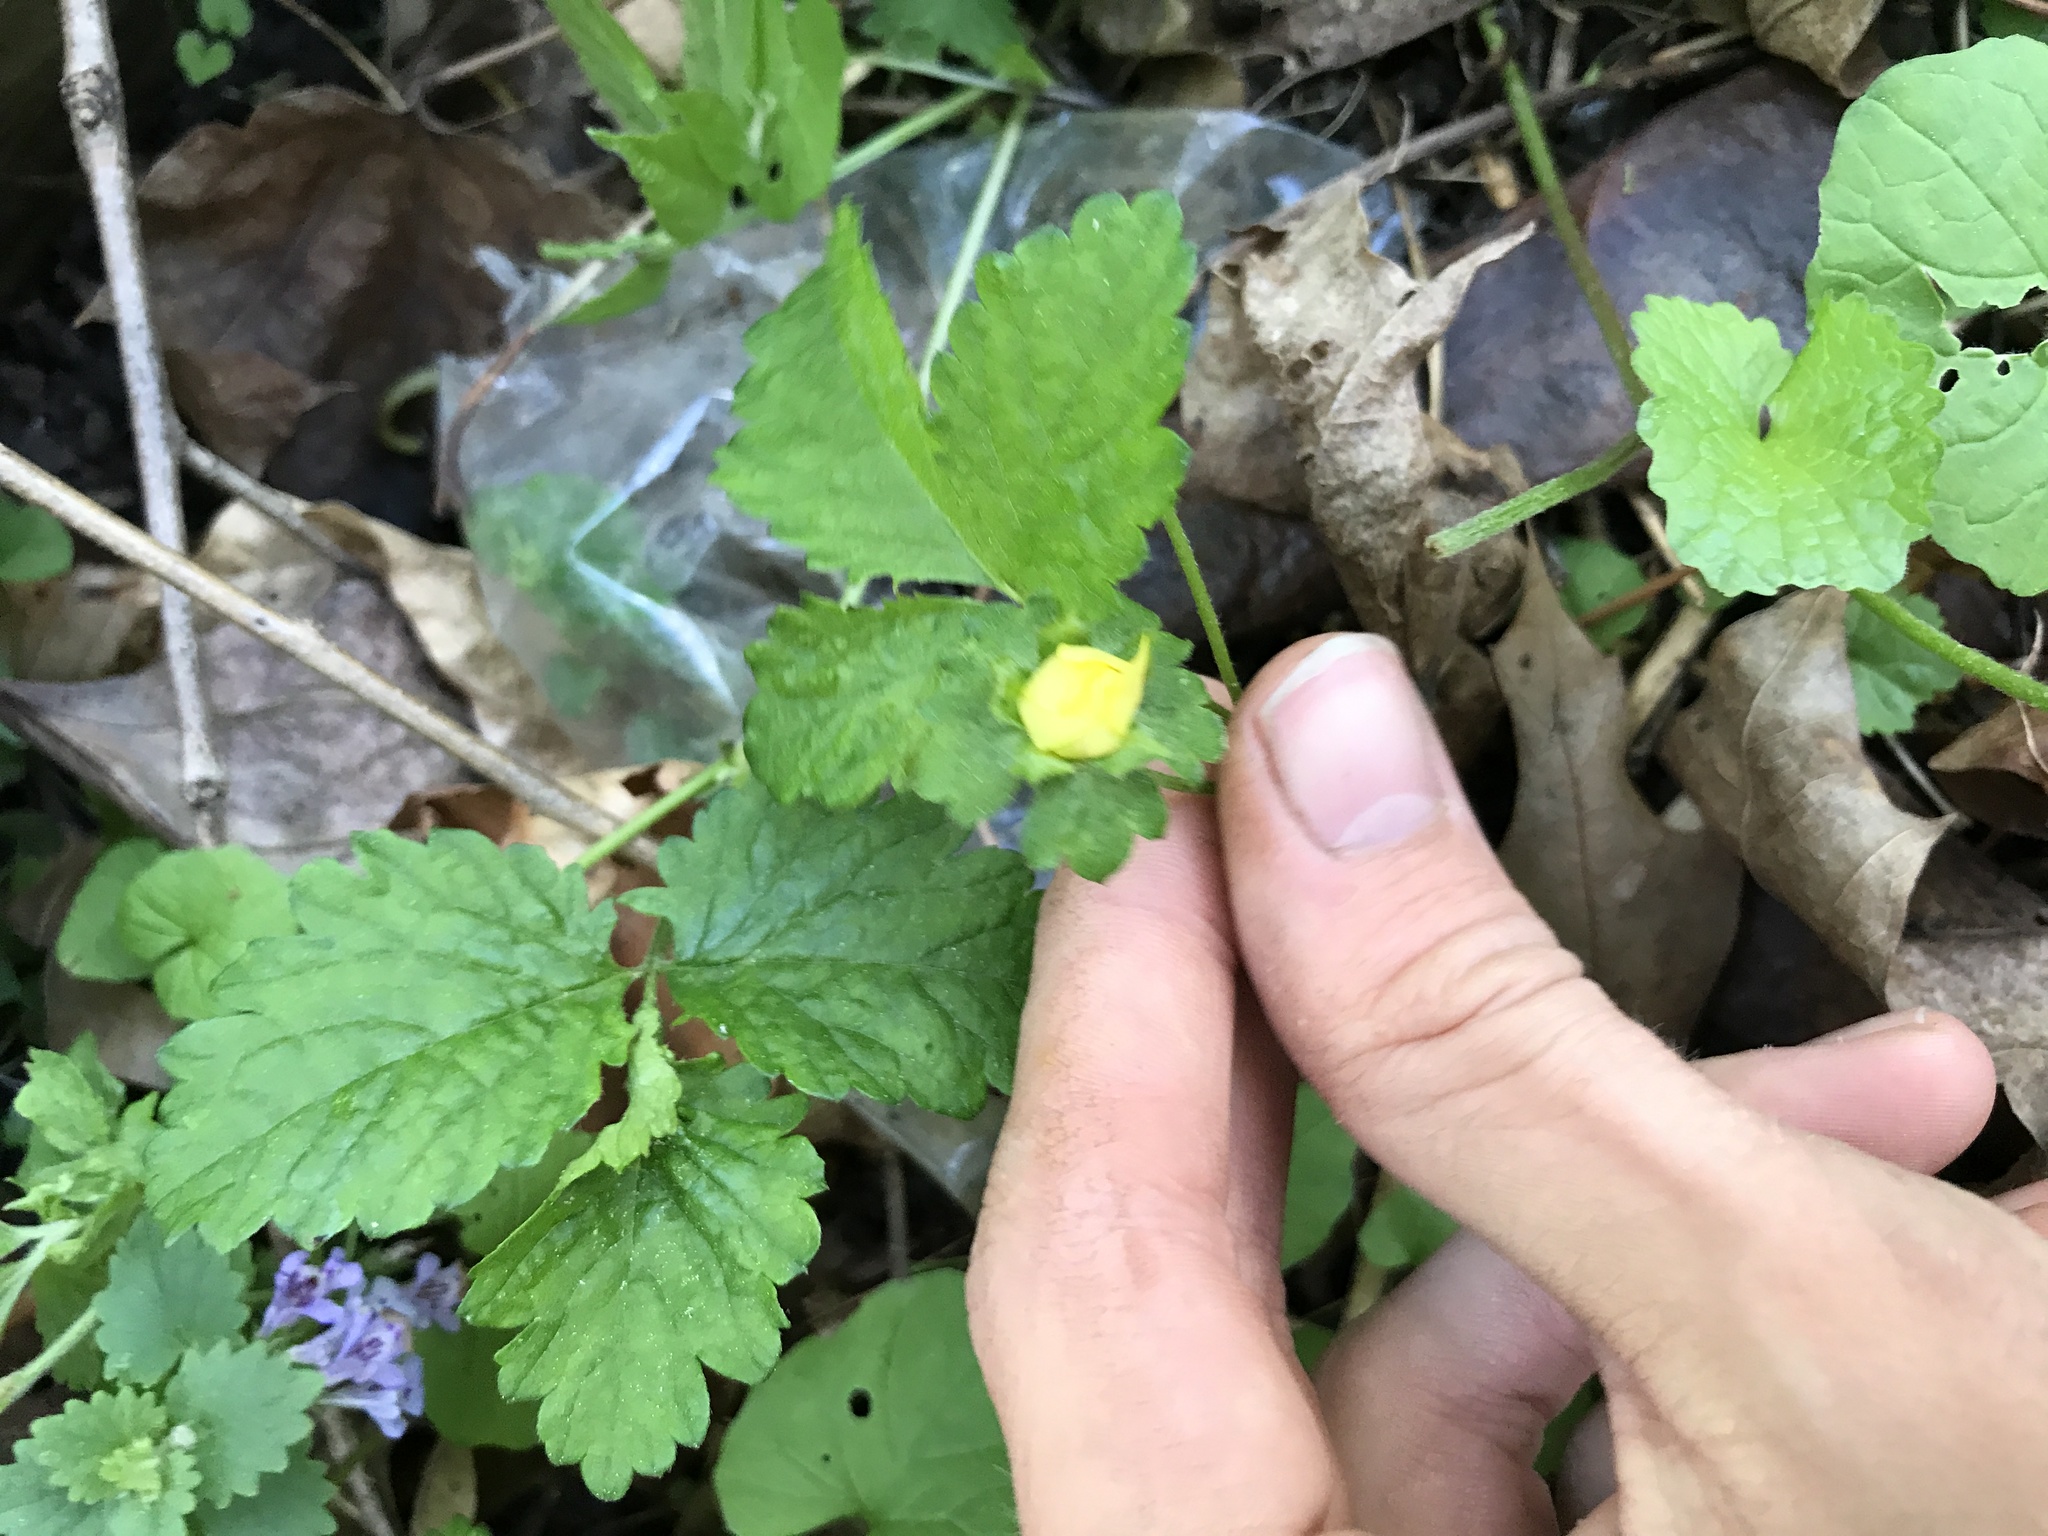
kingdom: Plantae
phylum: Tracheophyta
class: Magnoliopsida
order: Rosales
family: Rosaceae
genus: Potentilla
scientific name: Potentilla indica
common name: Yellow-flowered strawberry
